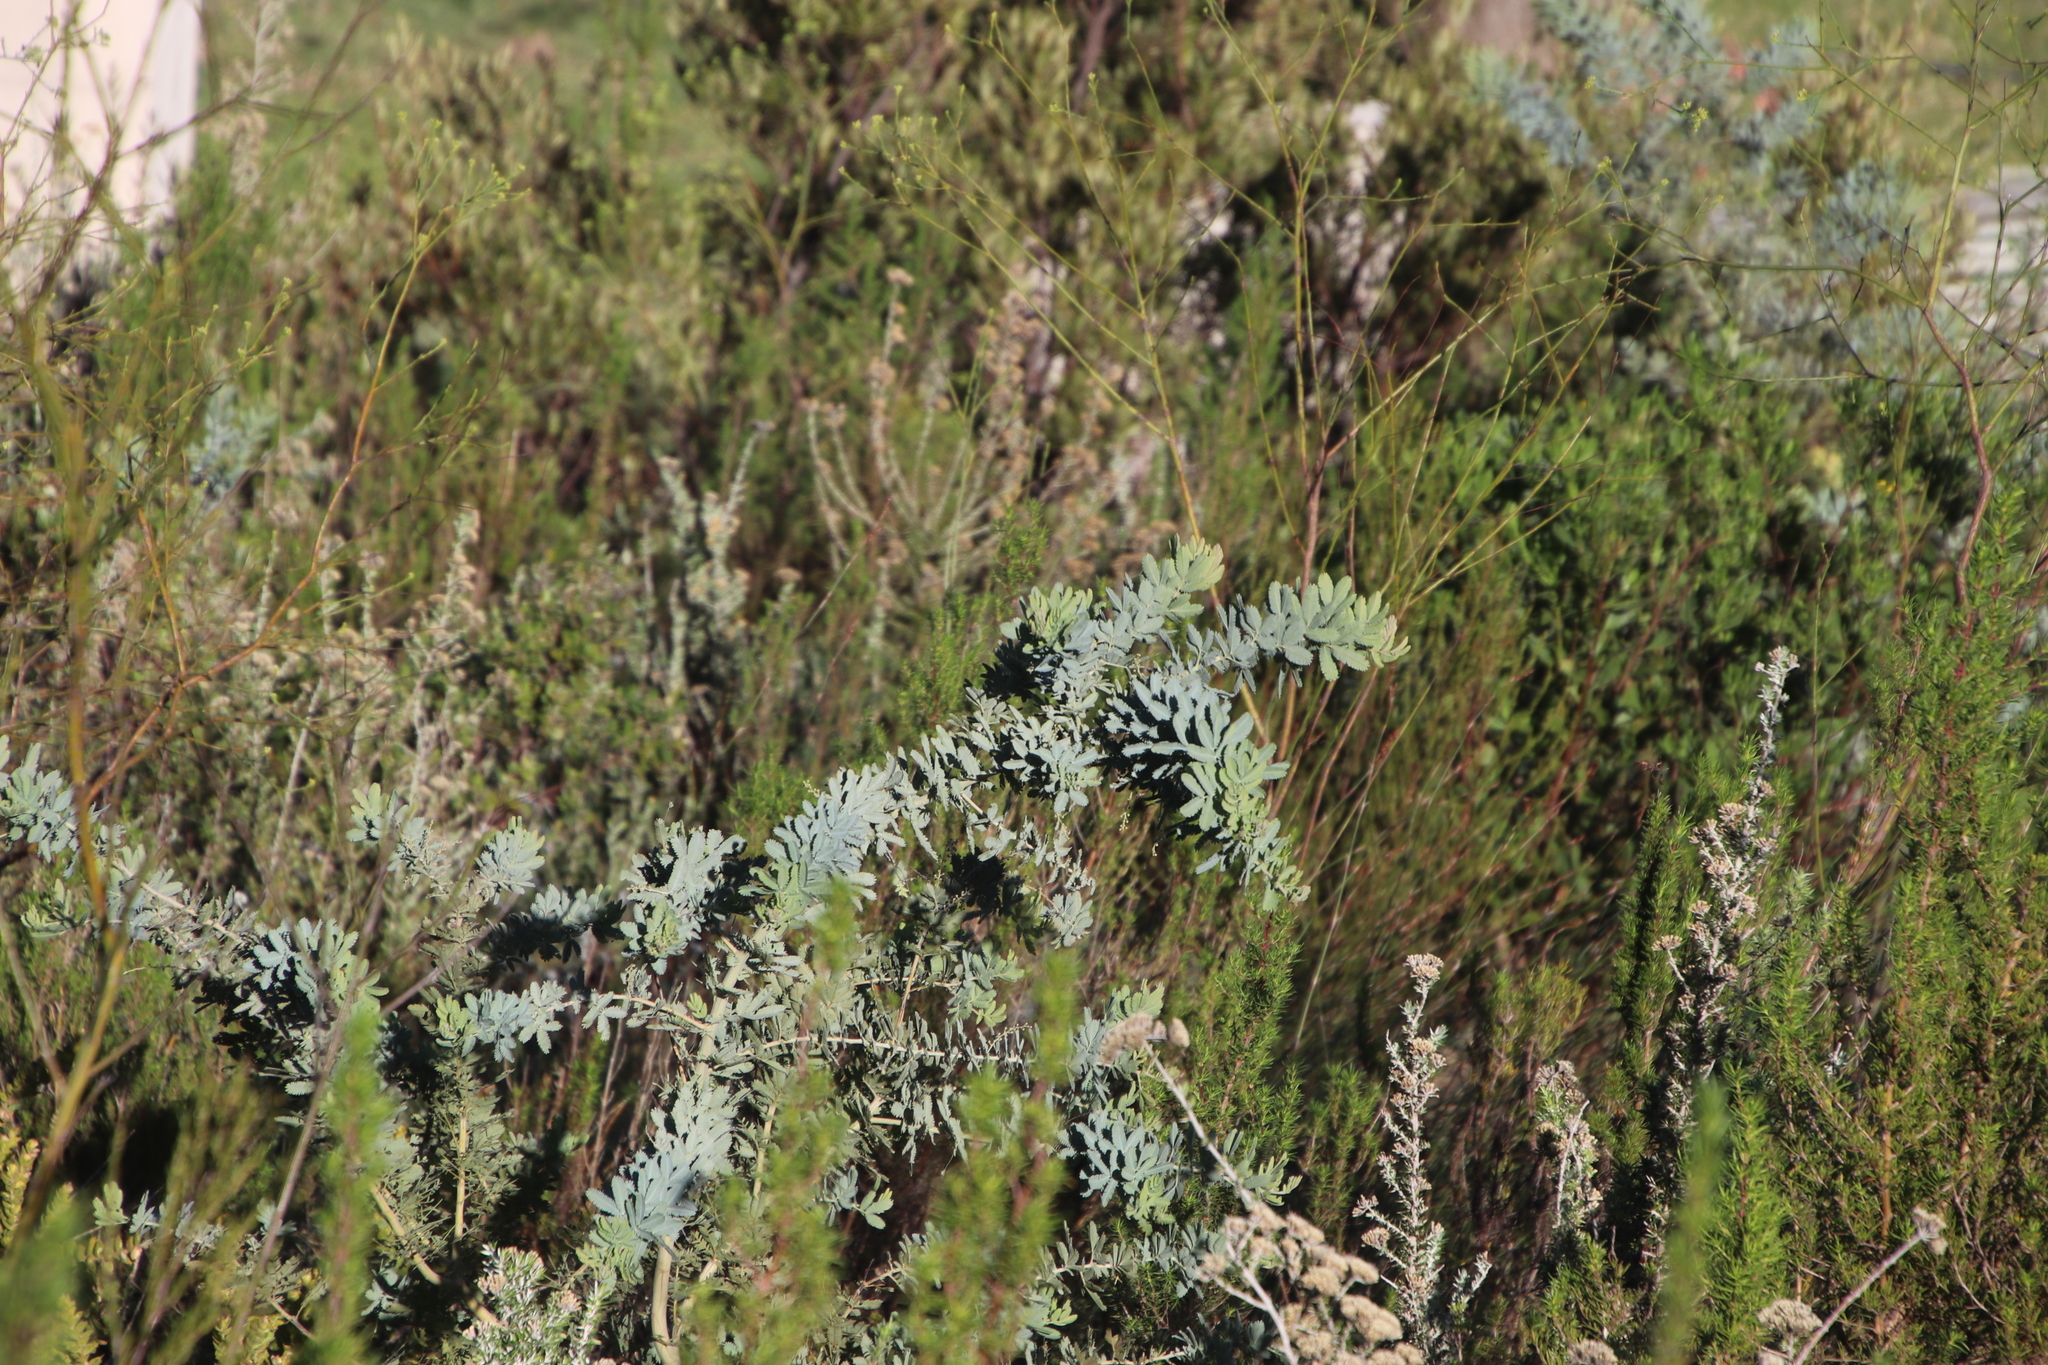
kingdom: Plantae
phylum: Tracheophyta
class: Magnoliopsida
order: Fabales
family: Fabaceae
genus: Acacia
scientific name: Acacia baileyana
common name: Cootamundra wattle
